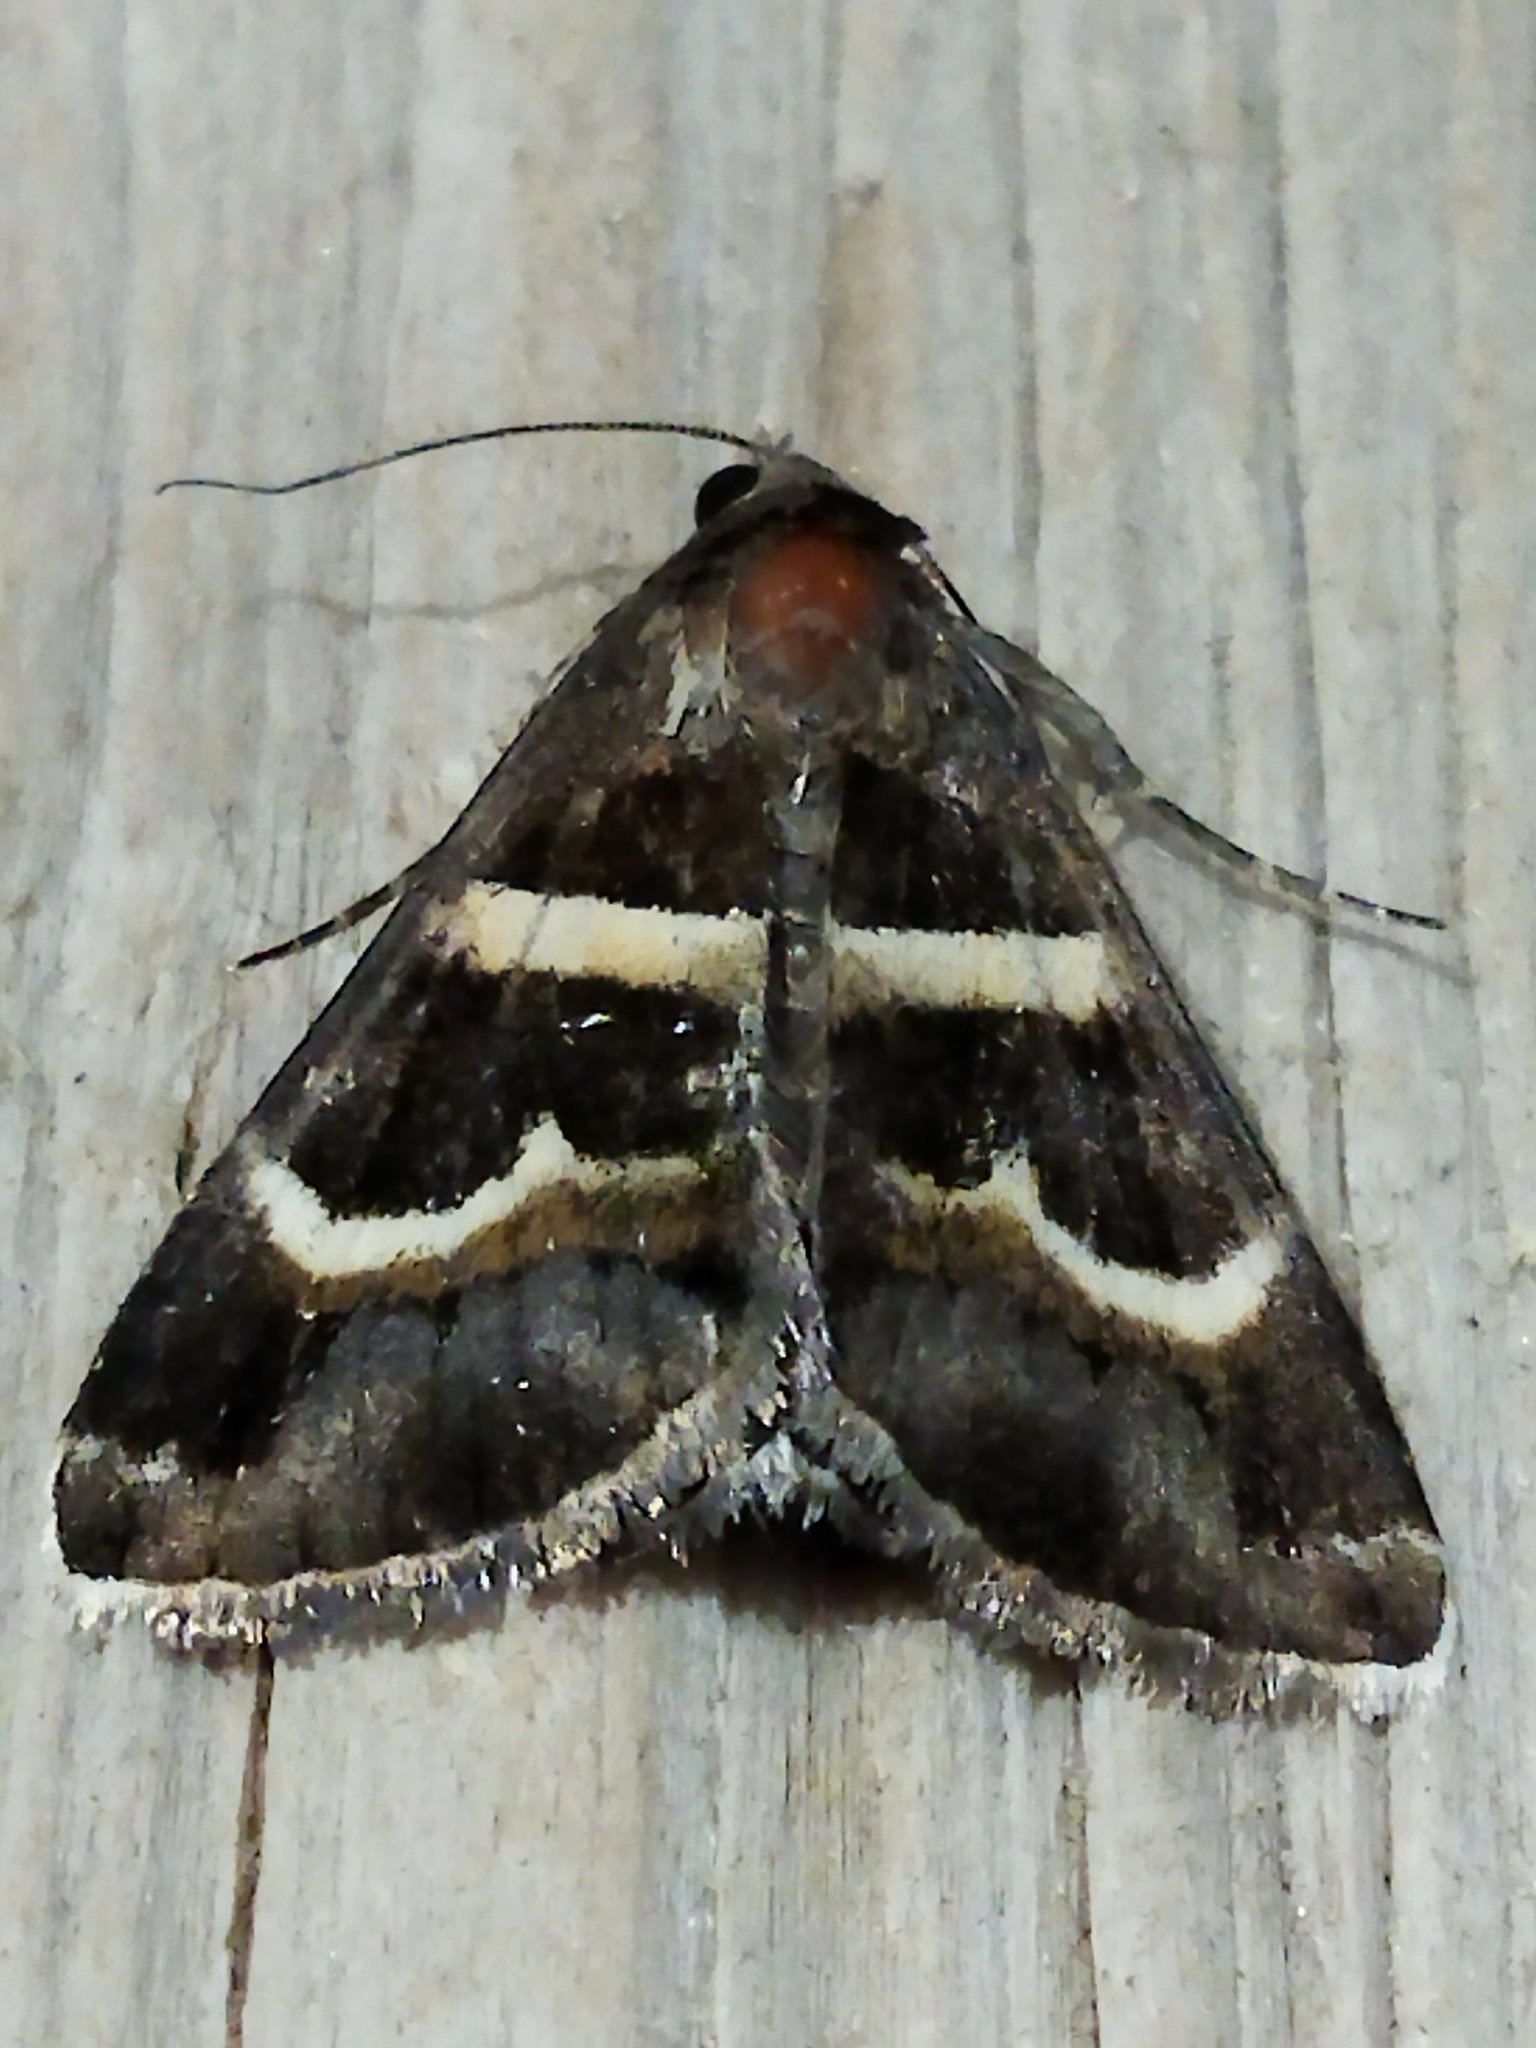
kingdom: Animalia
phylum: Arthropoda
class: Insecta
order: Lepidoptera
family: Erebidae
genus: Grammodes
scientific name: Grammodes stolida
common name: Geometrician
